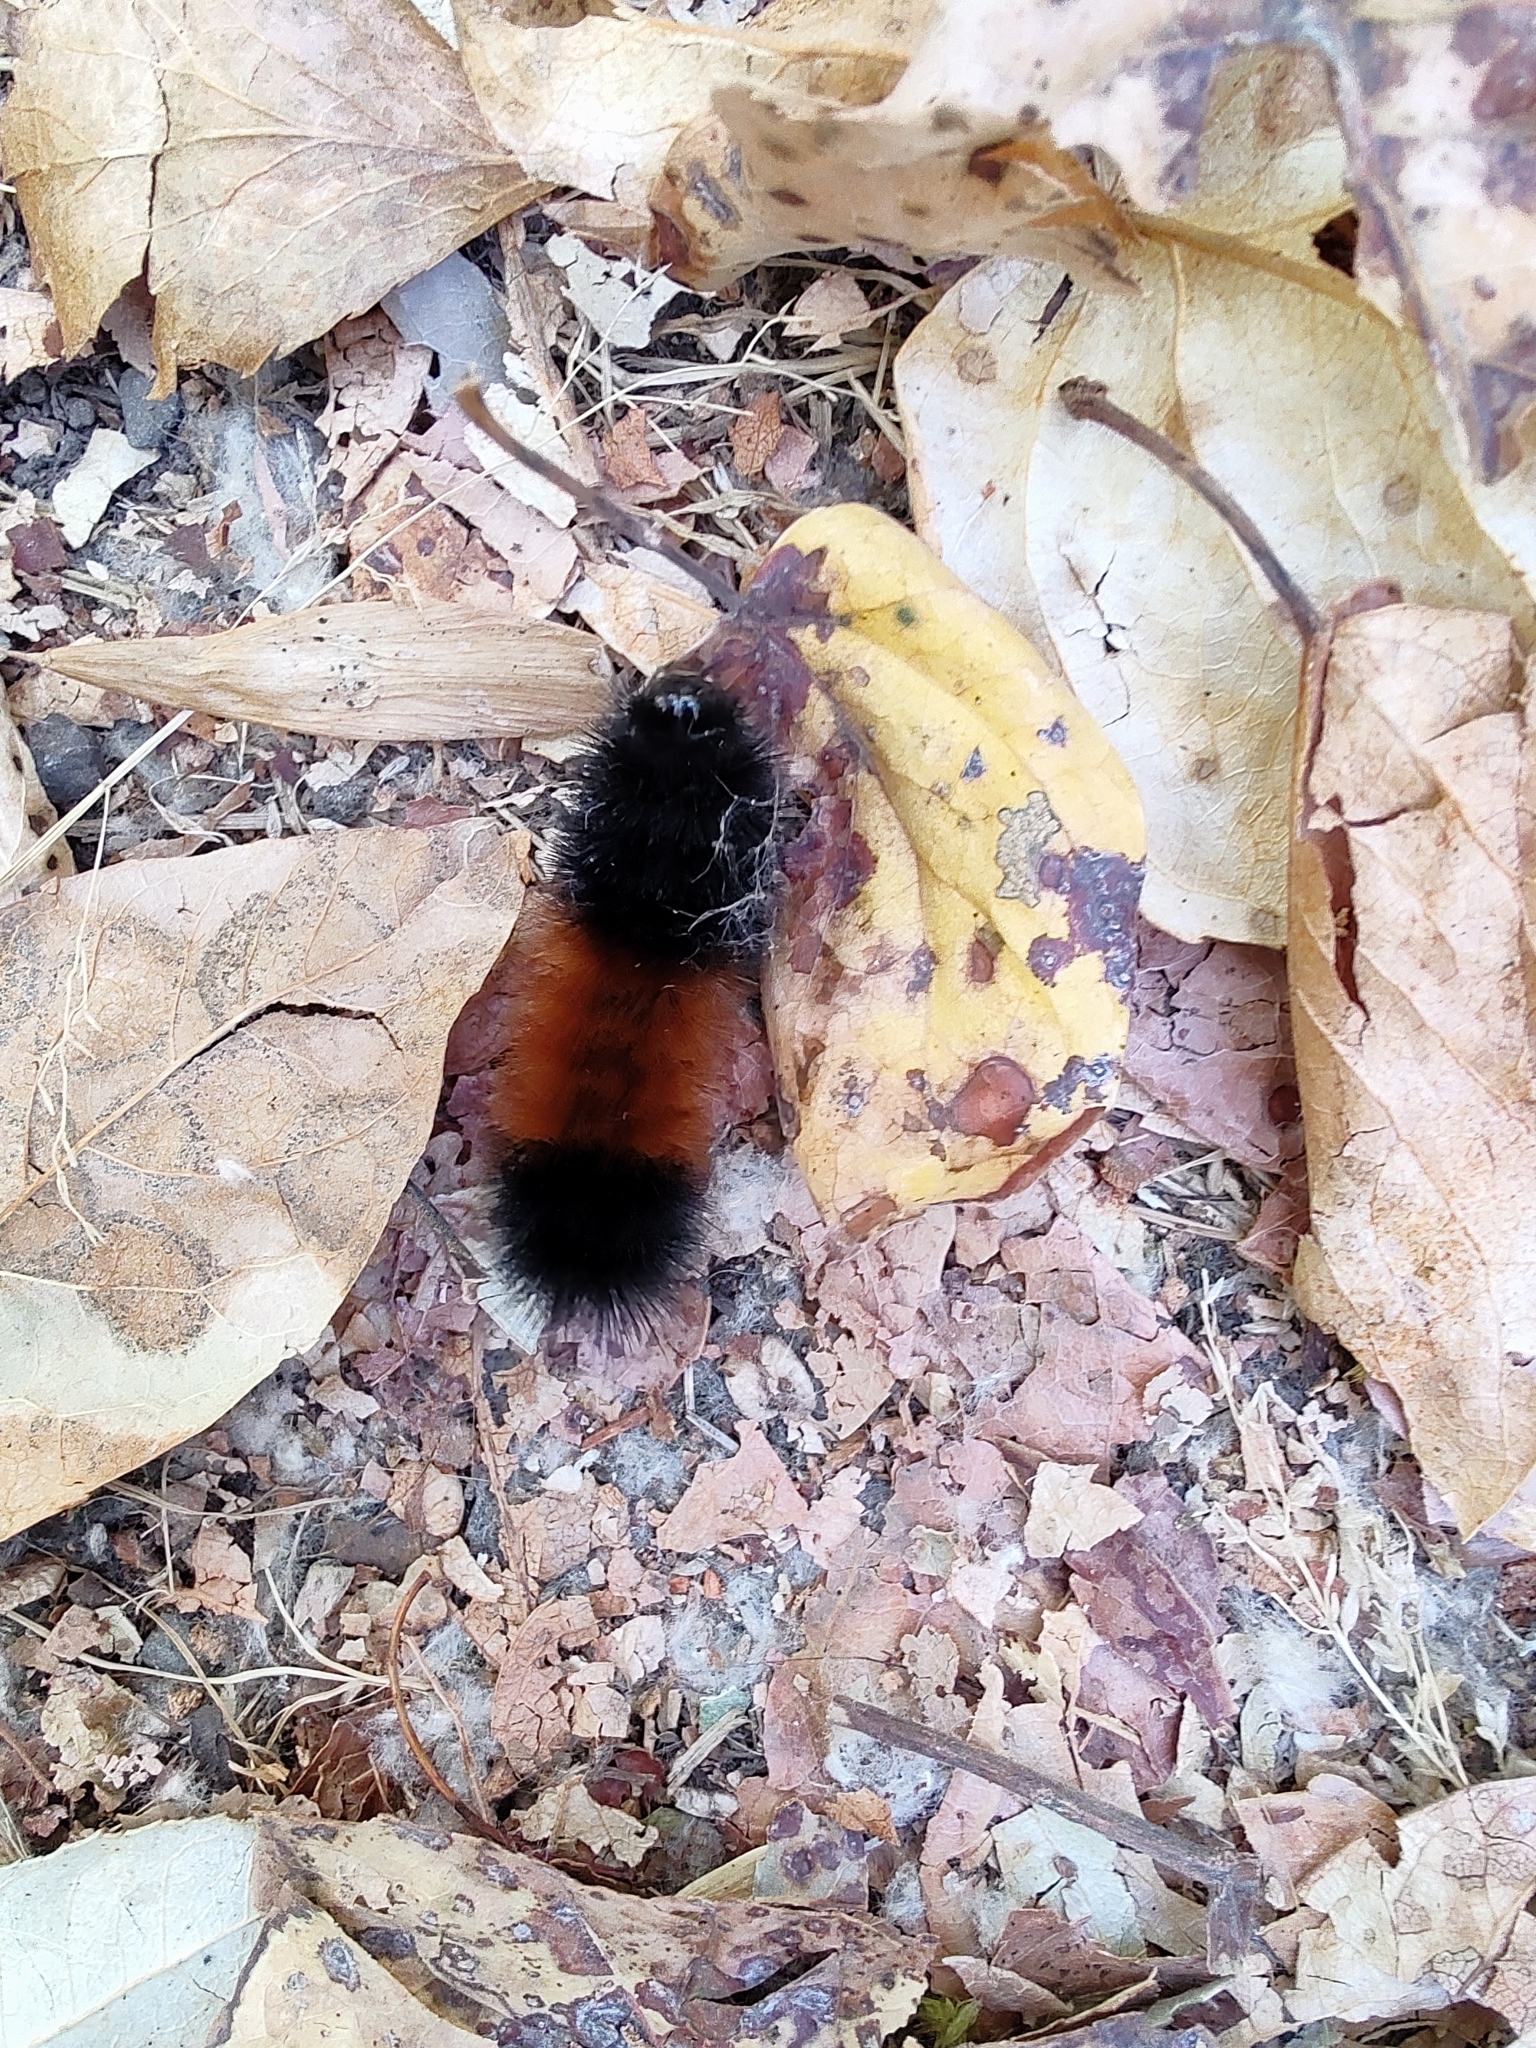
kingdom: Animalia
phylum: Arthropoda
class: Insecta
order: Lepidoptera
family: Erebidae
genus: Pyrrharctia
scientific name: Pyrrharctia isabella
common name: Isabella tiger moth
